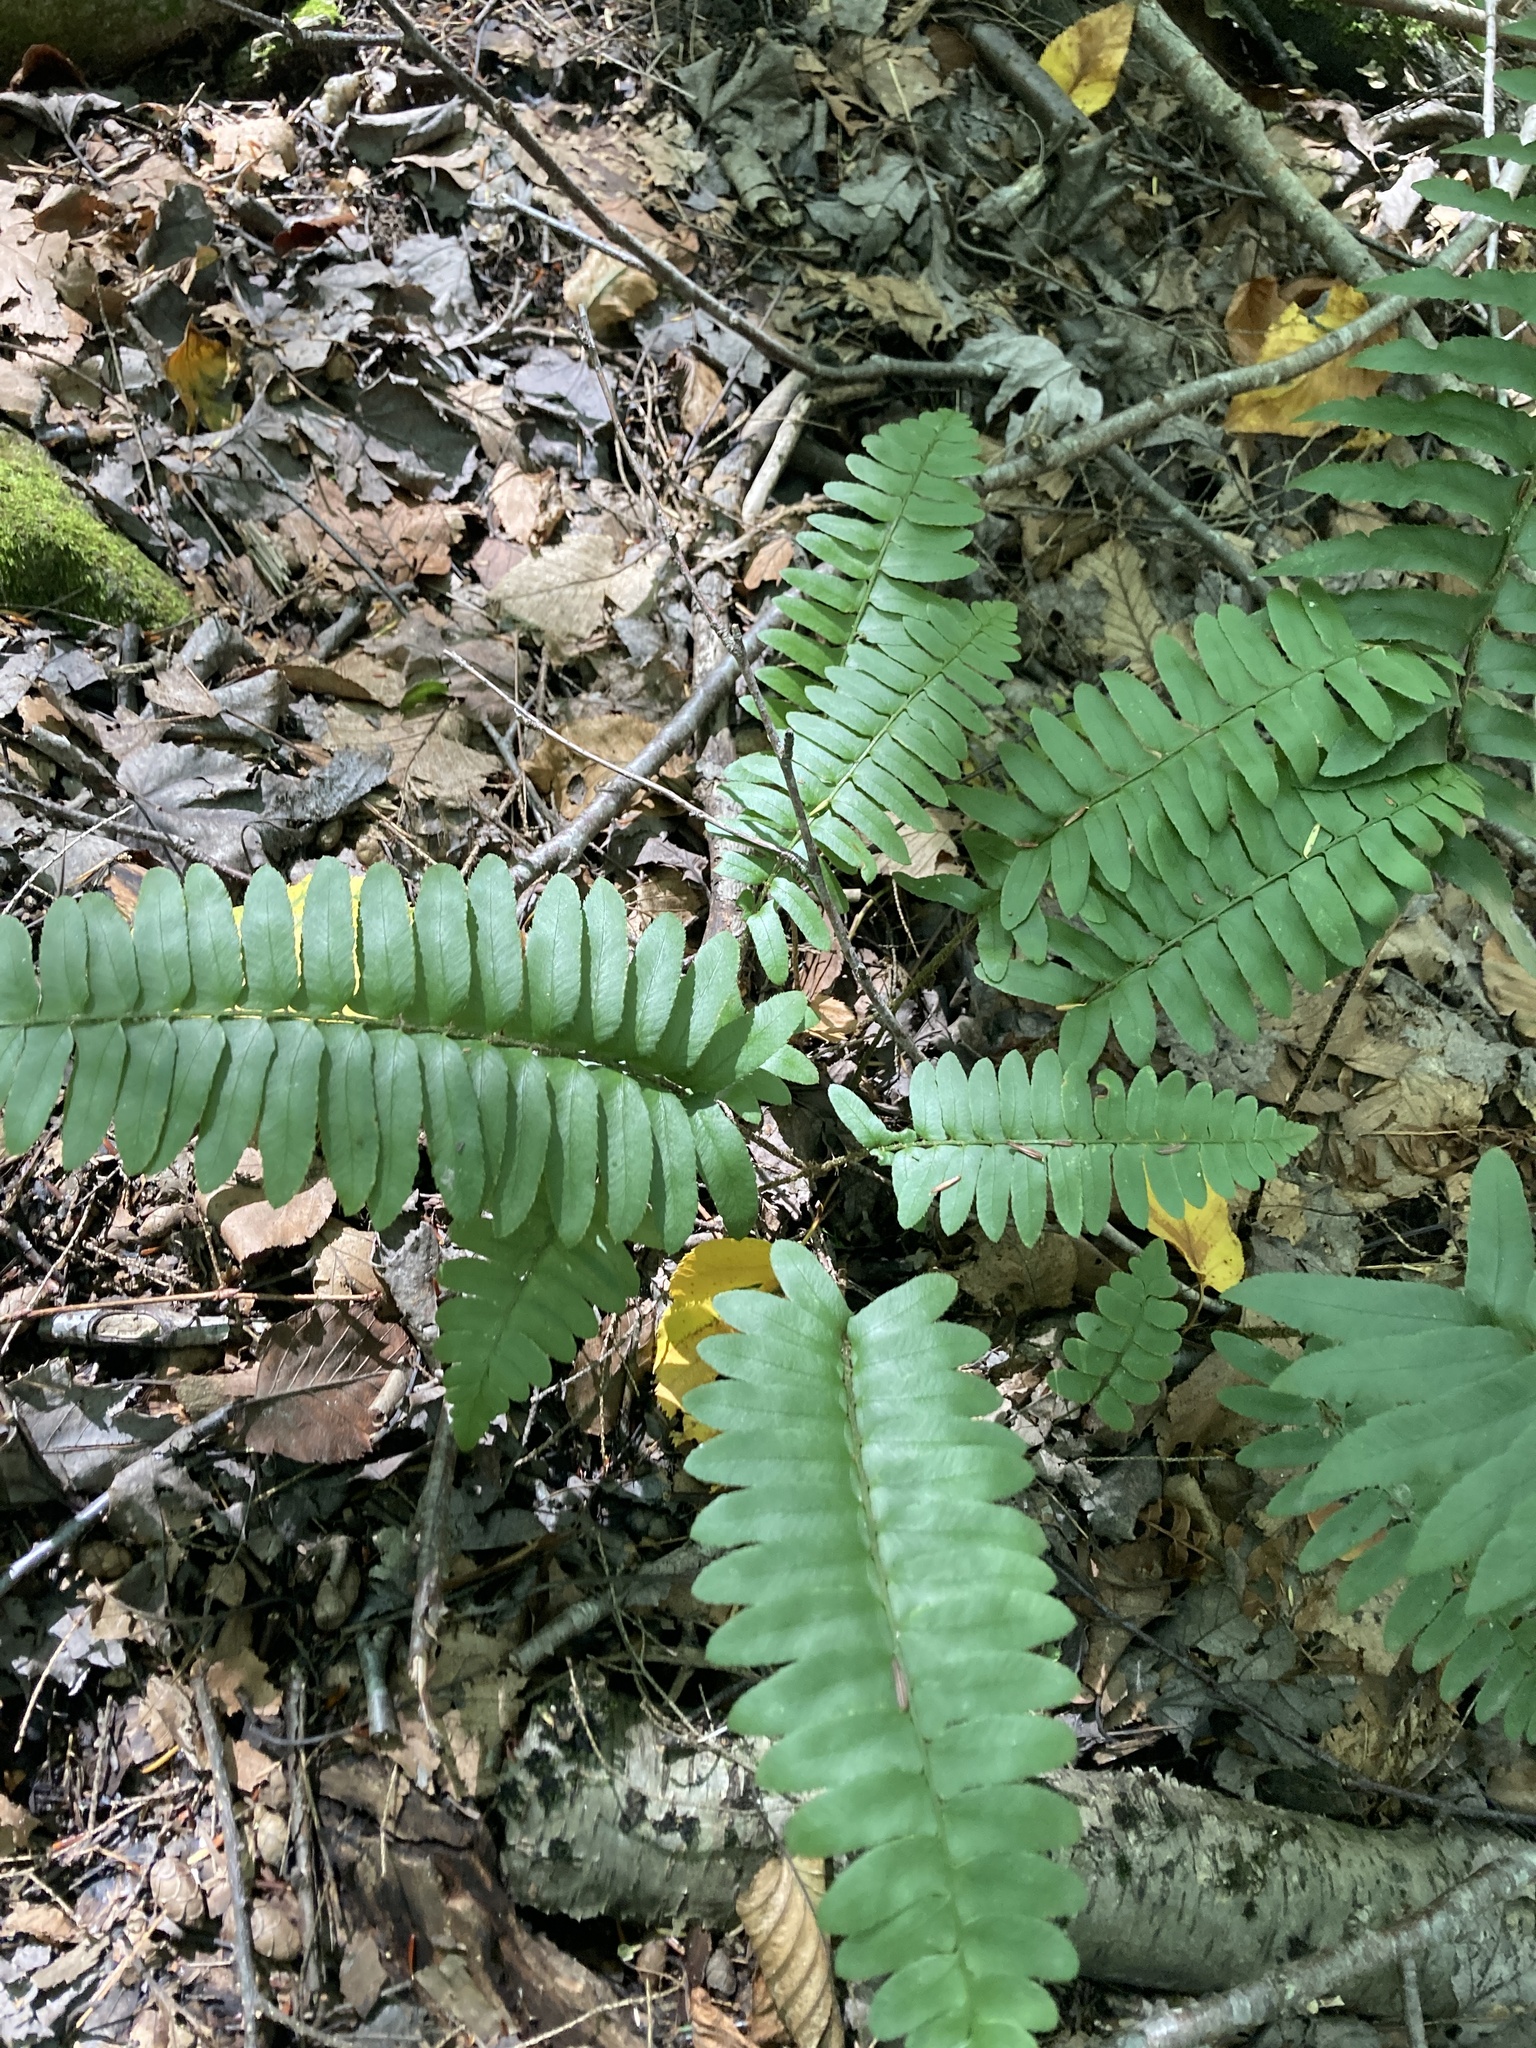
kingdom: Plantae
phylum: Tracheophyta
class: Polypodiopsida
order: Polypodiales
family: Dryopteridaceae
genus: Polystichum
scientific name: Polystichum acrostichoides
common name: Christmas fern
